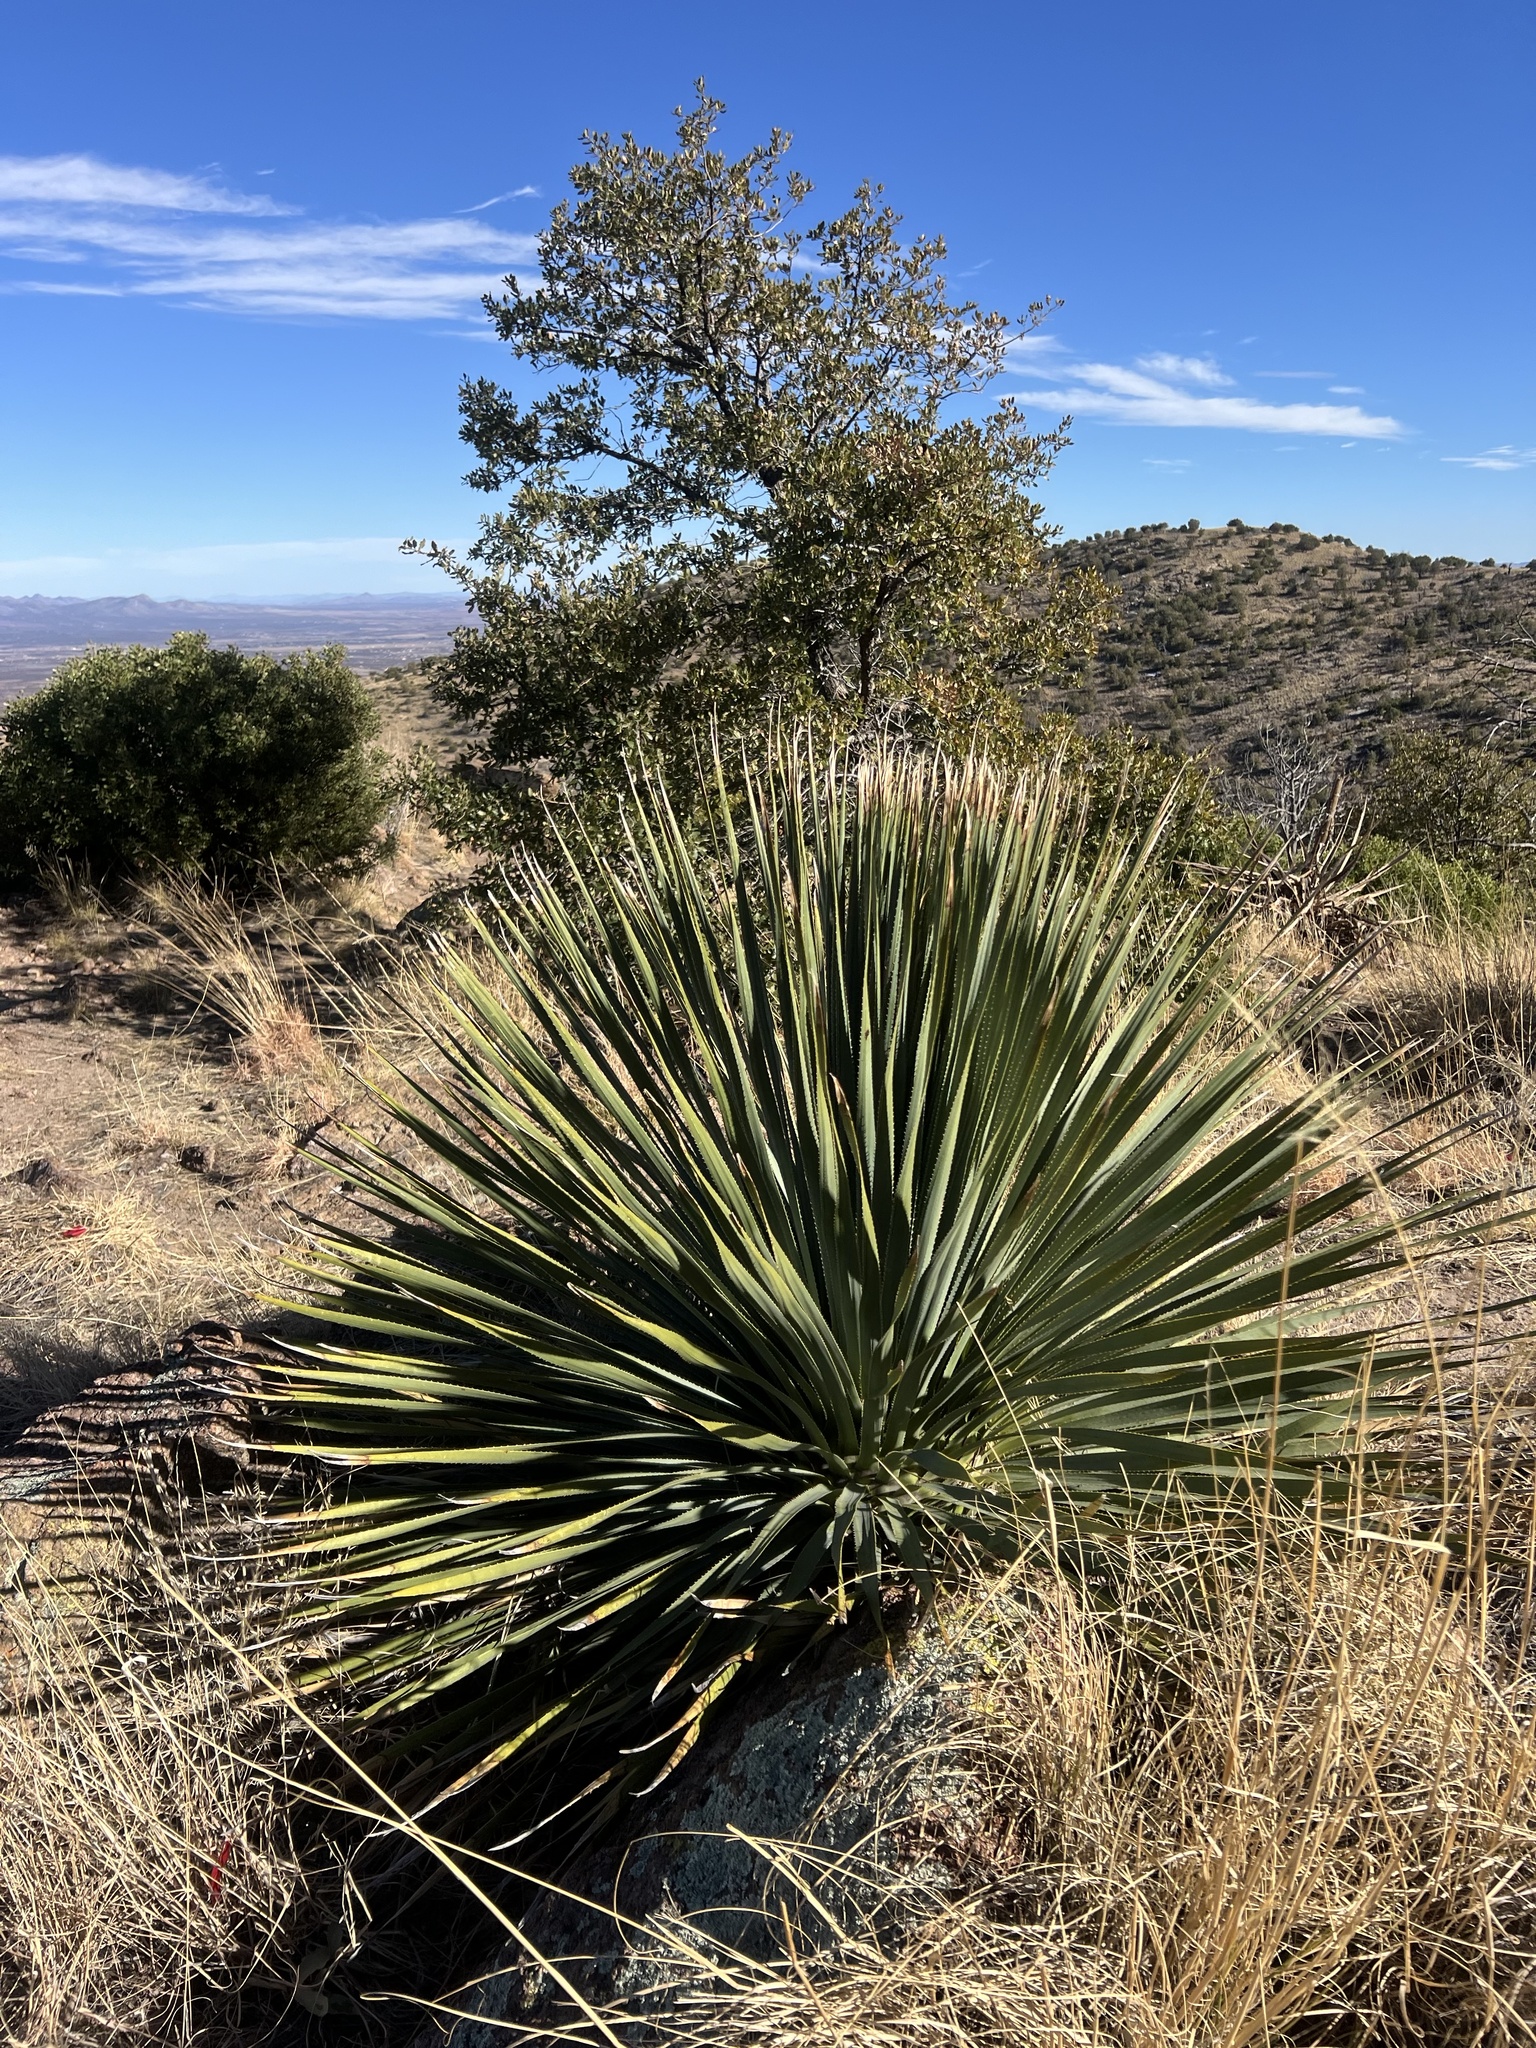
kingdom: Plantae
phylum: Tracheophyta
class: Liliopsida
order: Asparagales
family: Asparagaceae
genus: Dasylirion
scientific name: Dasylirion wheeleri
